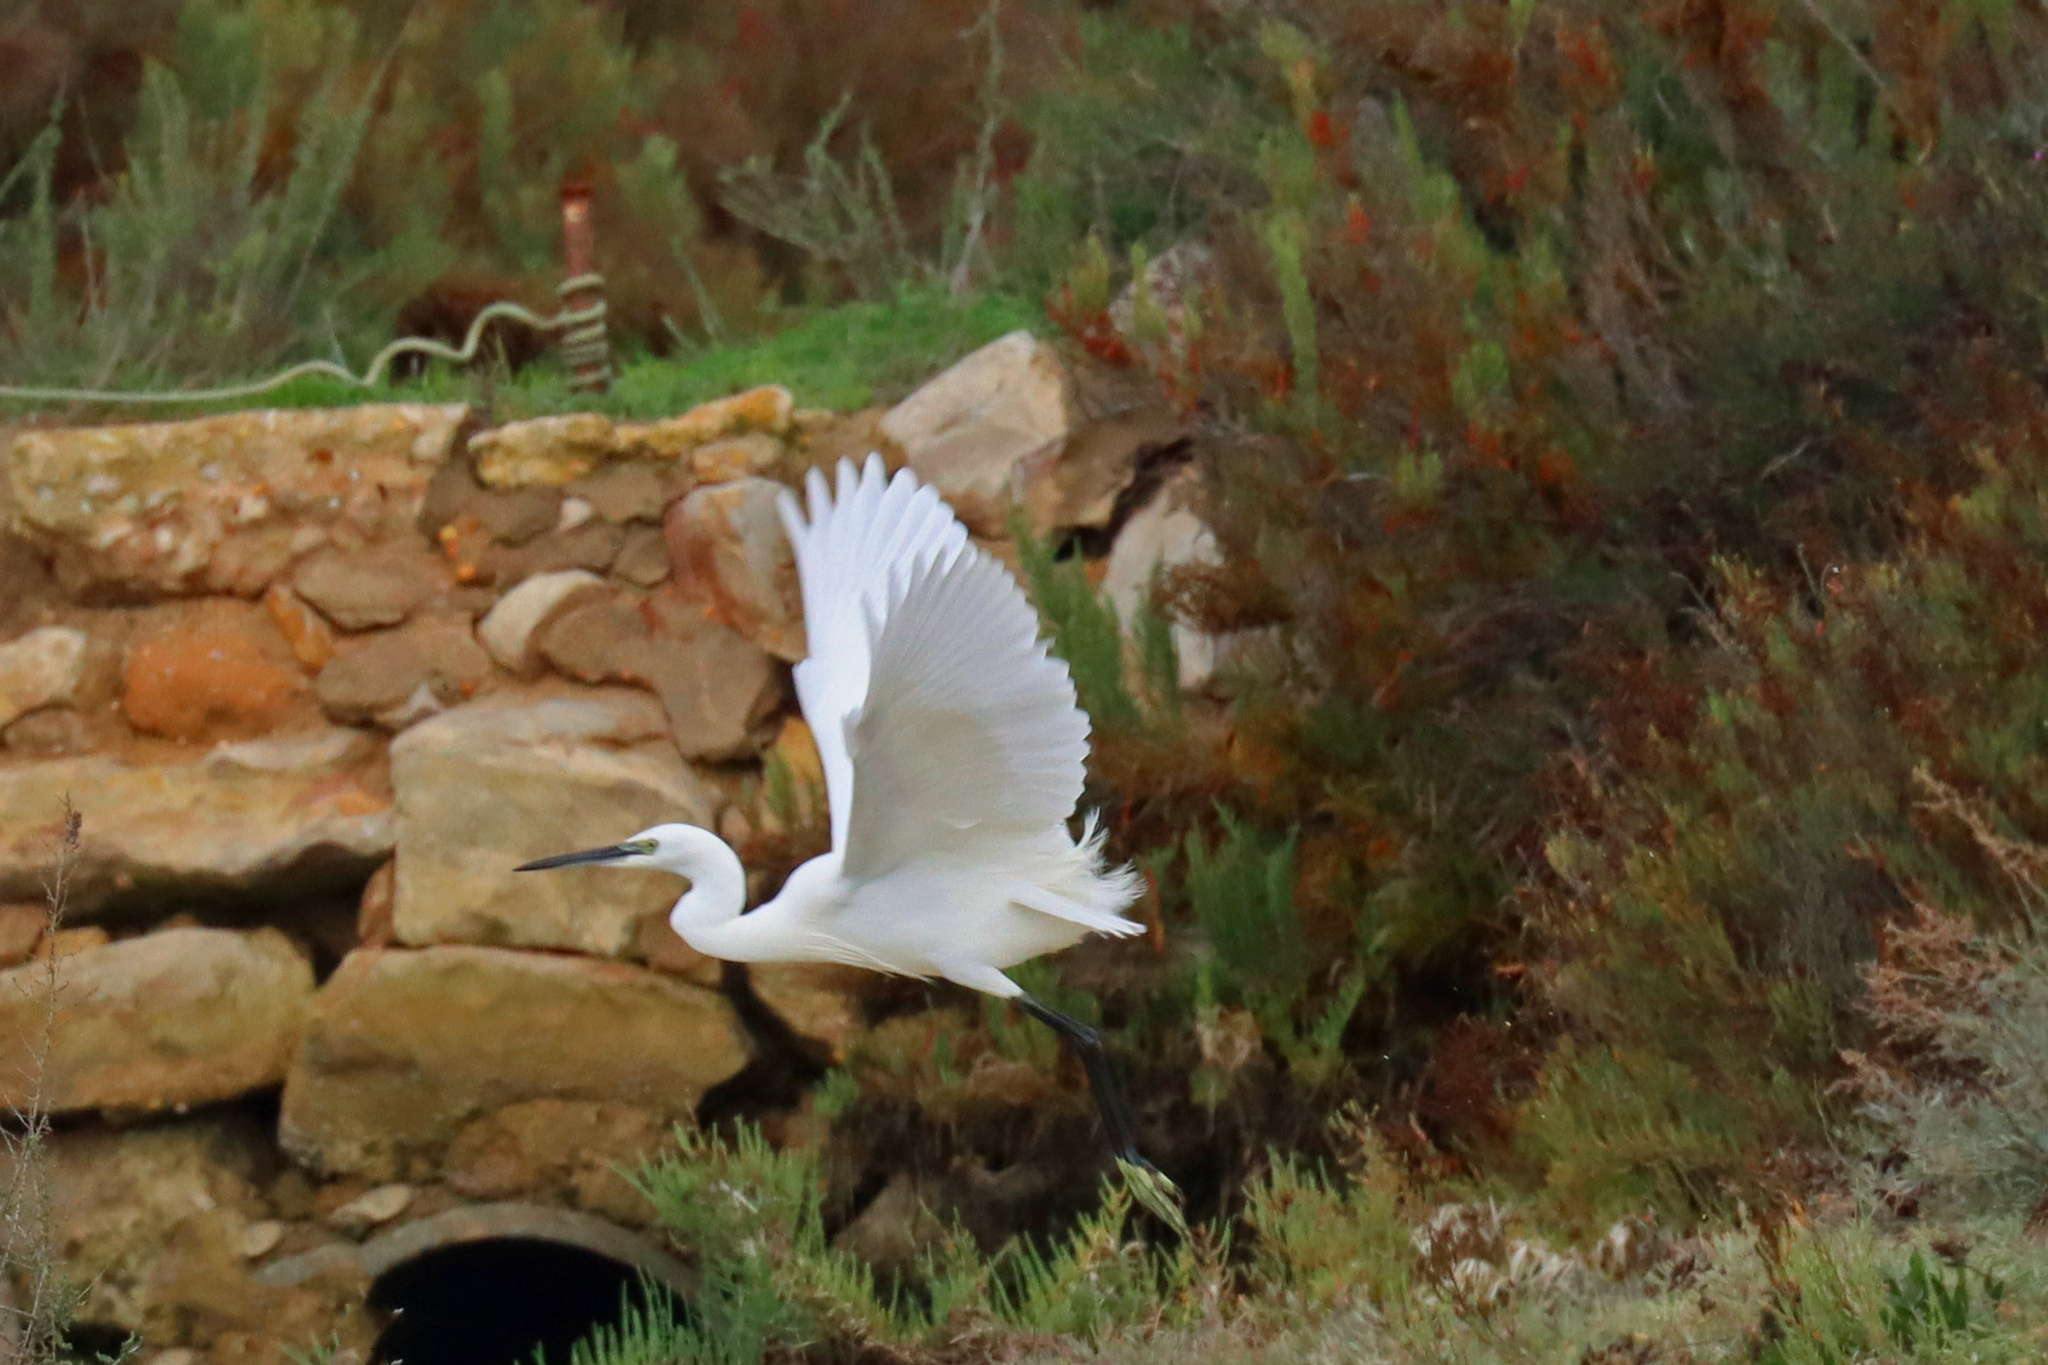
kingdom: Animalia
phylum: Chordata
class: Aves
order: Pelecaniformes
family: Ardeidae
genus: Egretta
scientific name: Egretta garzetta
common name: Little egret
